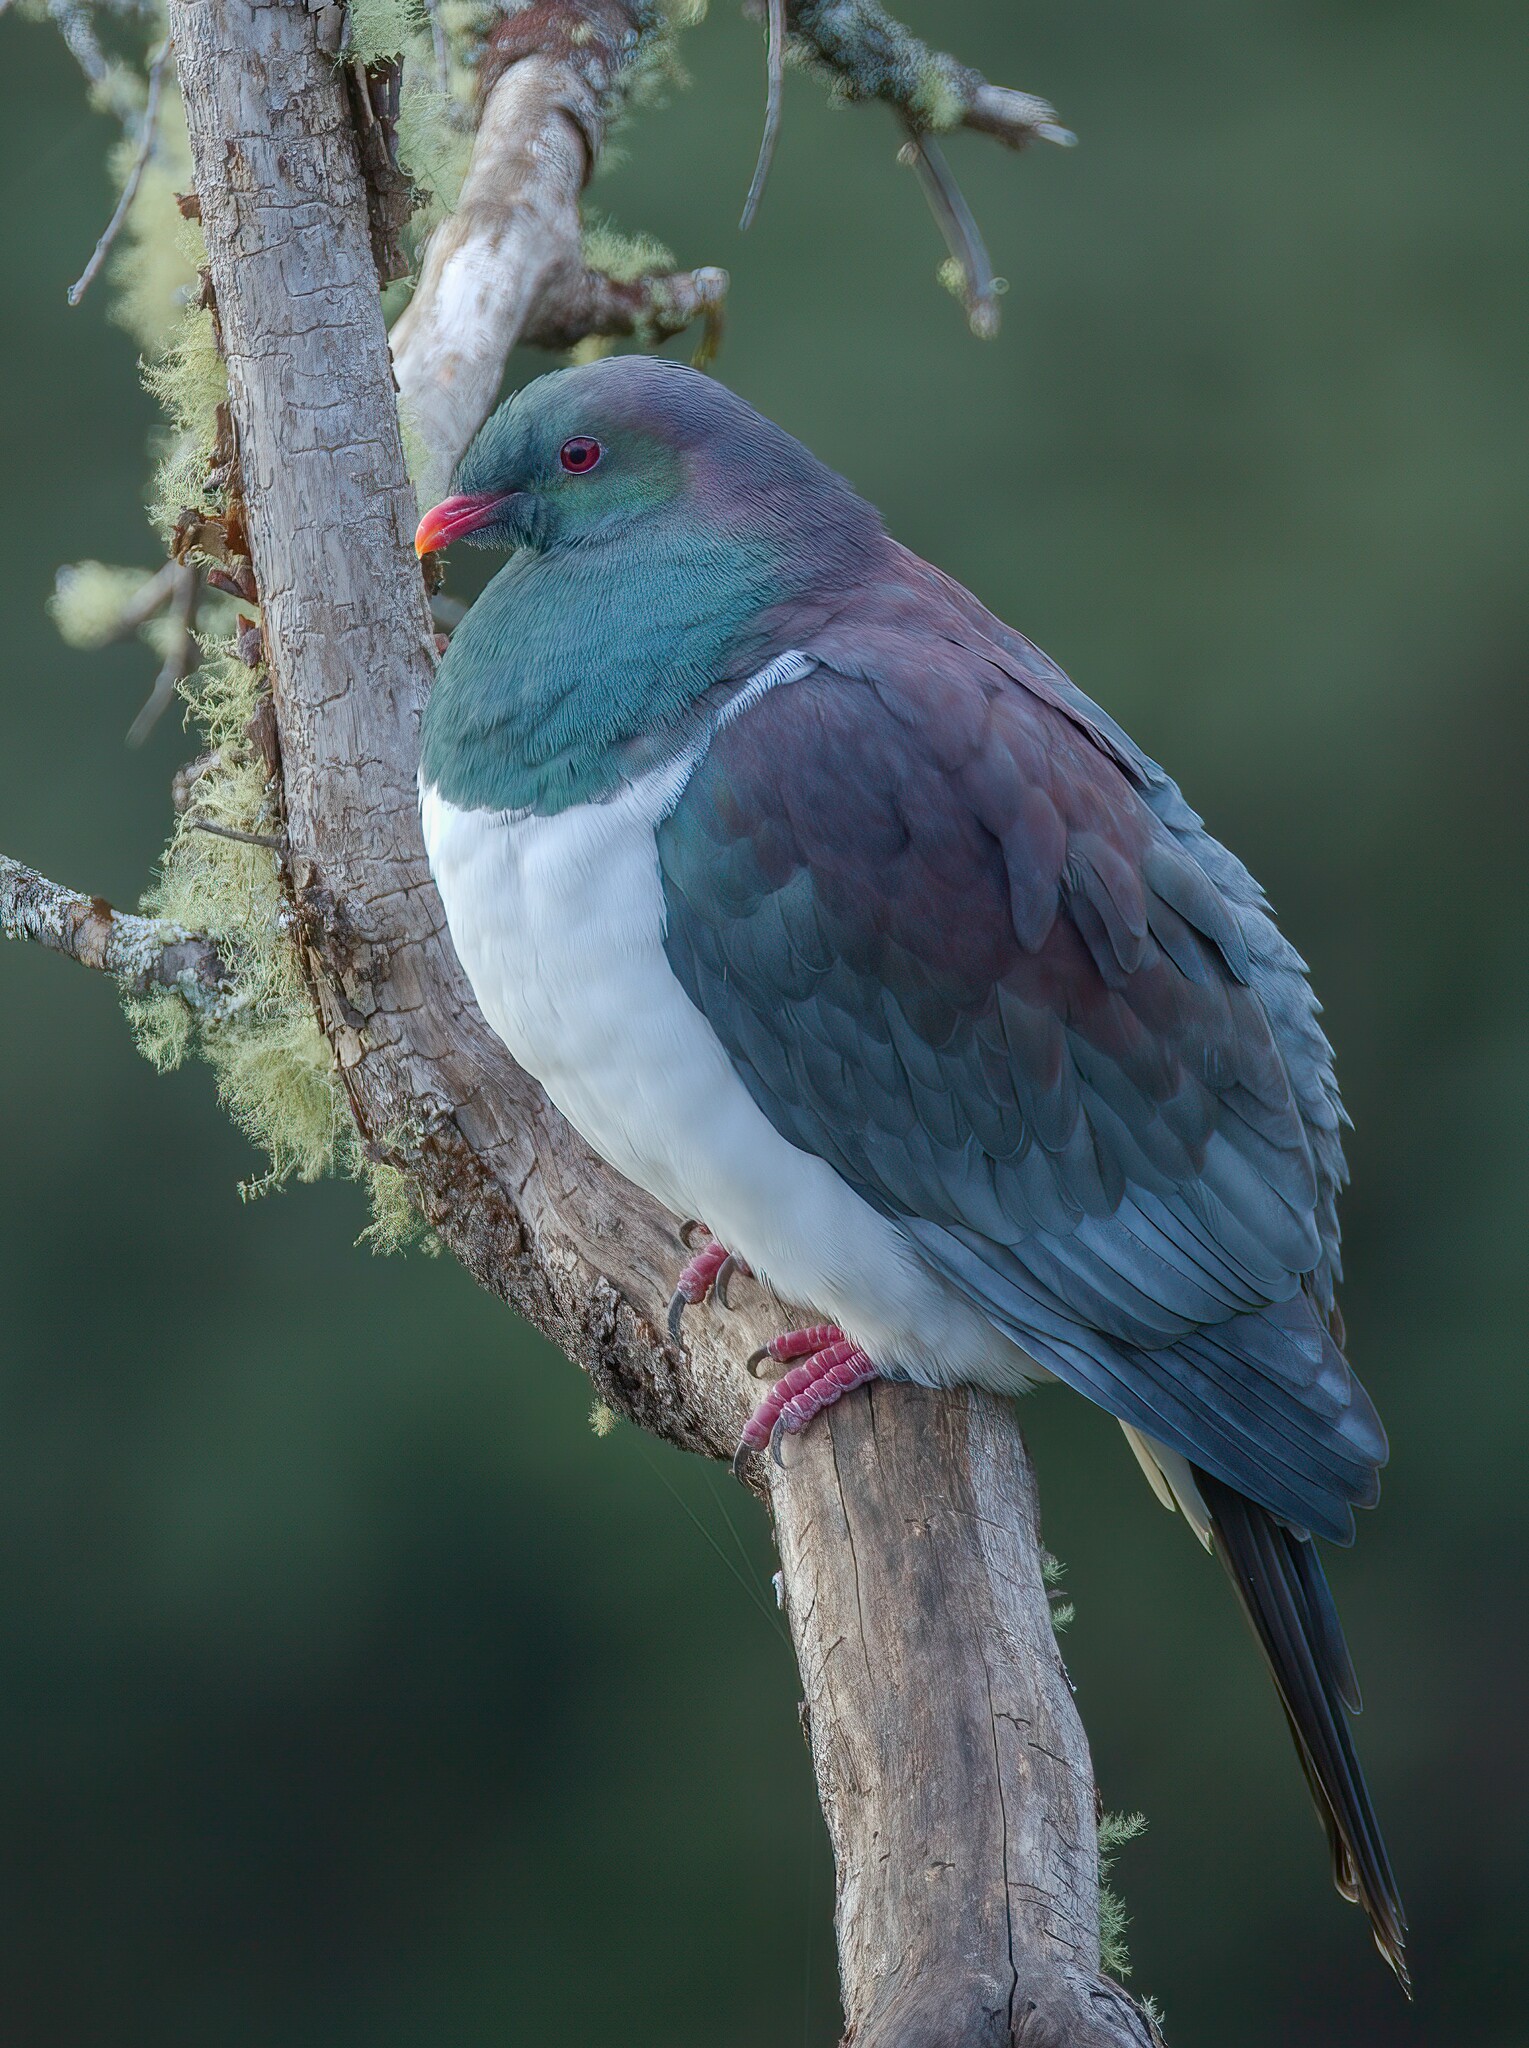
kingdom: Animalia
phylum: Chordata
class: Aves
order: Columbiformes
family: Columbidae
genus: Hemiphaga
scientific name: Hemiphaga novaeseelandiae
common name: New zealand pigeon
